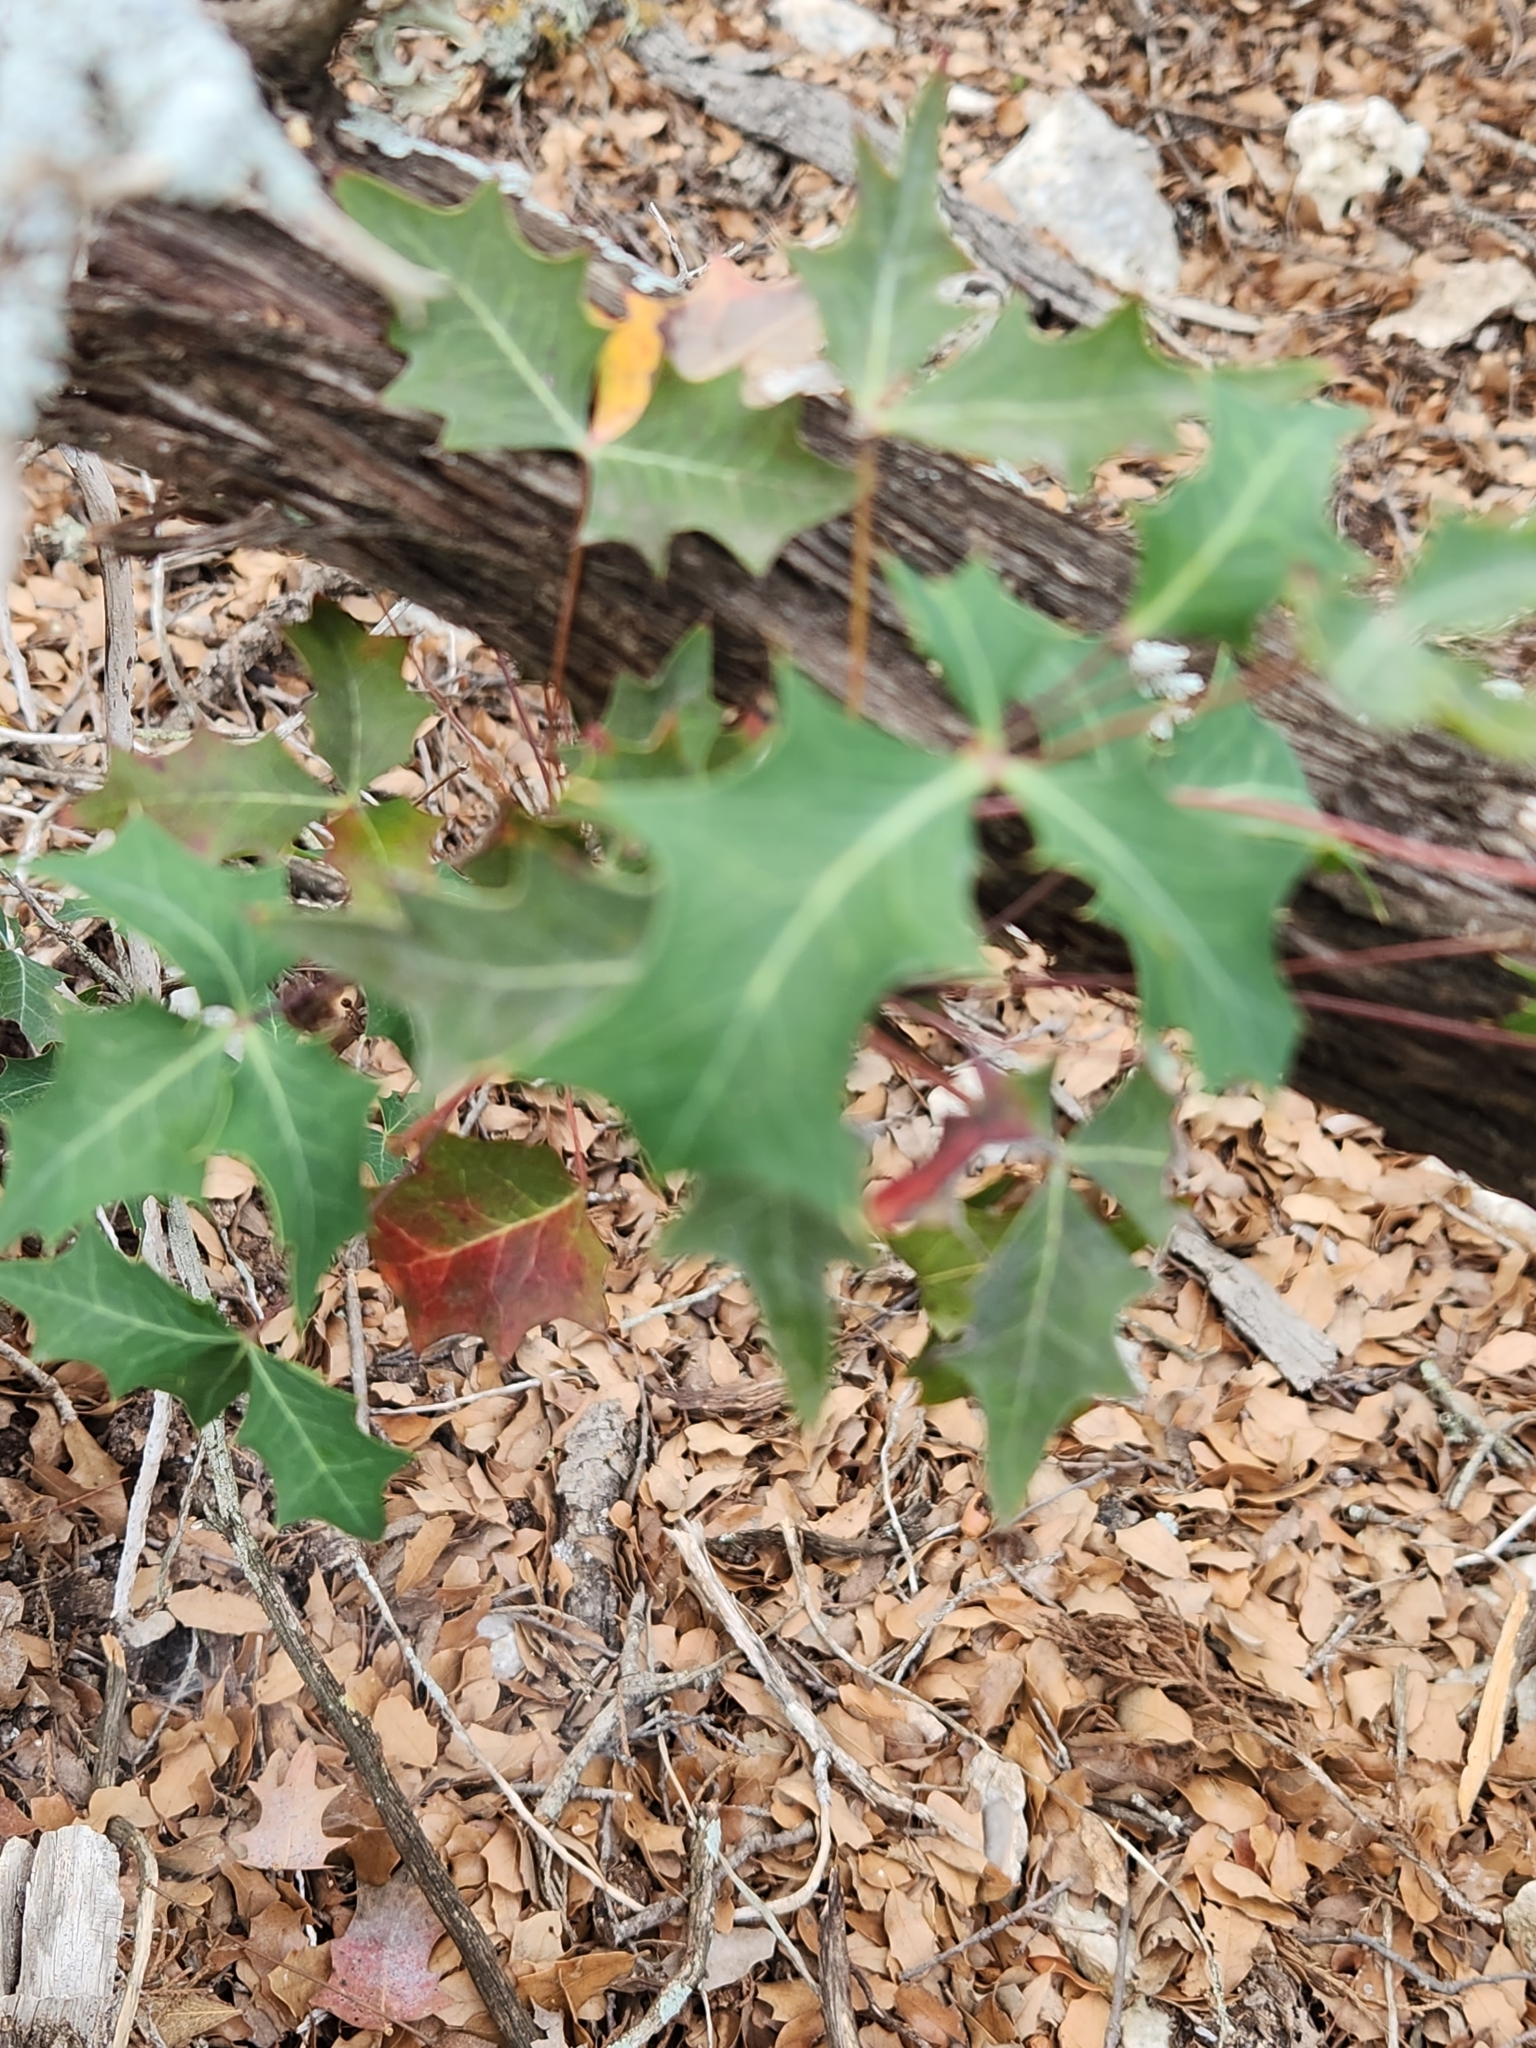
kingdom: Plantae
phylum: Tracheophyta
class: Magnoliopsida
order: Ranunculales
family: Berberidaceae
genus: Alloberberis
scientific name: Alloberberis trifoliolata
